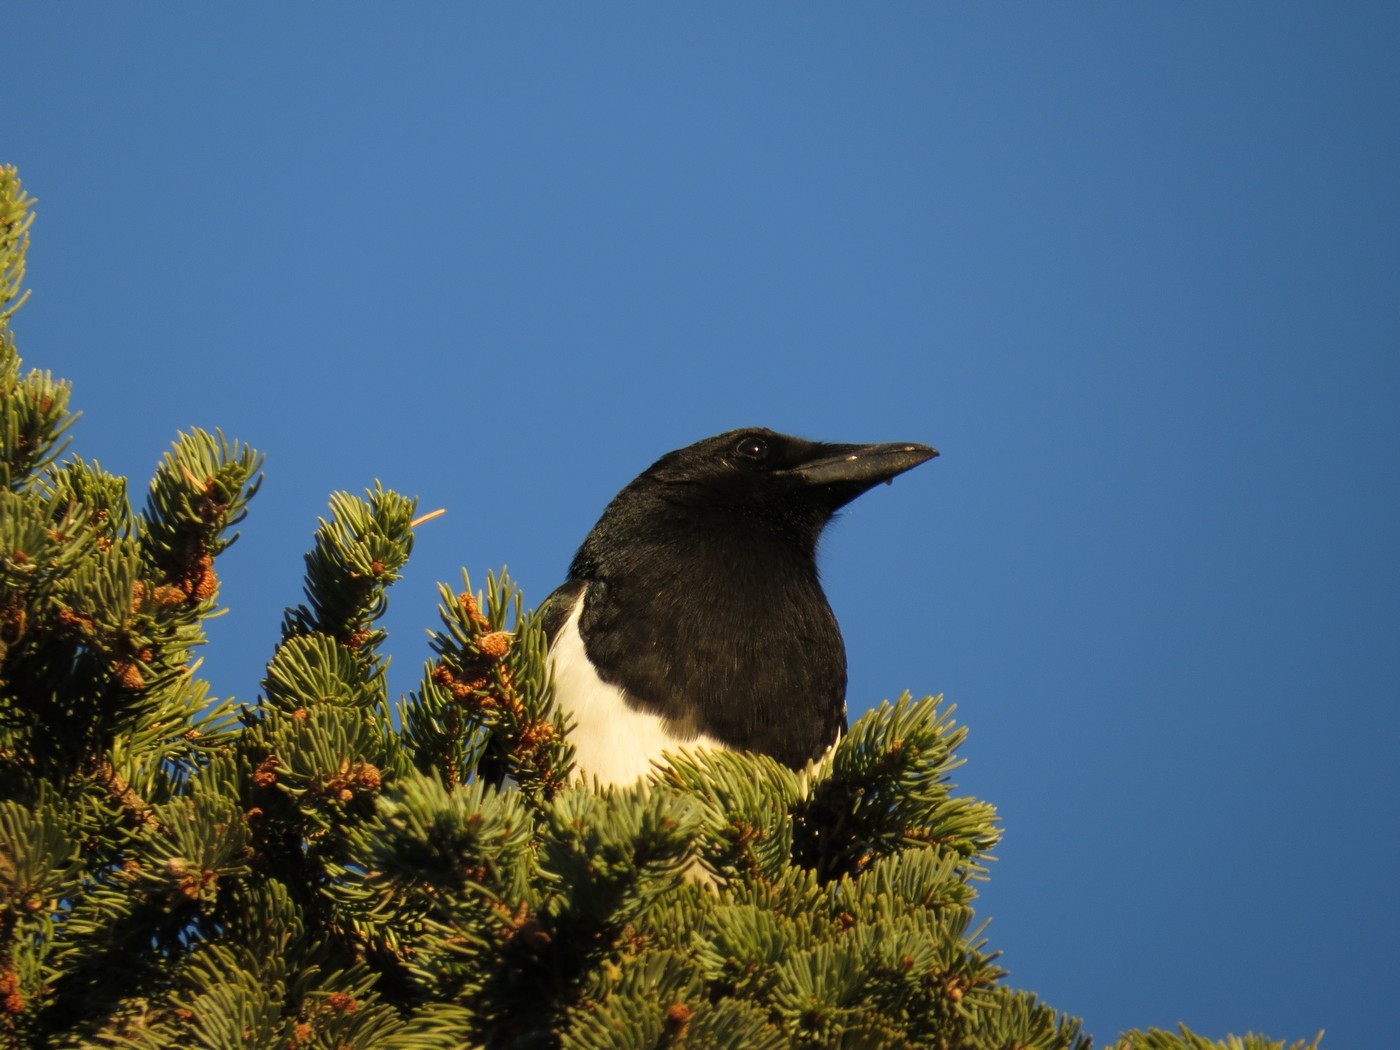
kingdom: Animalia
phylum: Chordata
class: Aves
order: Passeriformes
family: Corvidae
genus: Pica
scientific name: Pica hudsonia
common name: Black-billed magpie
